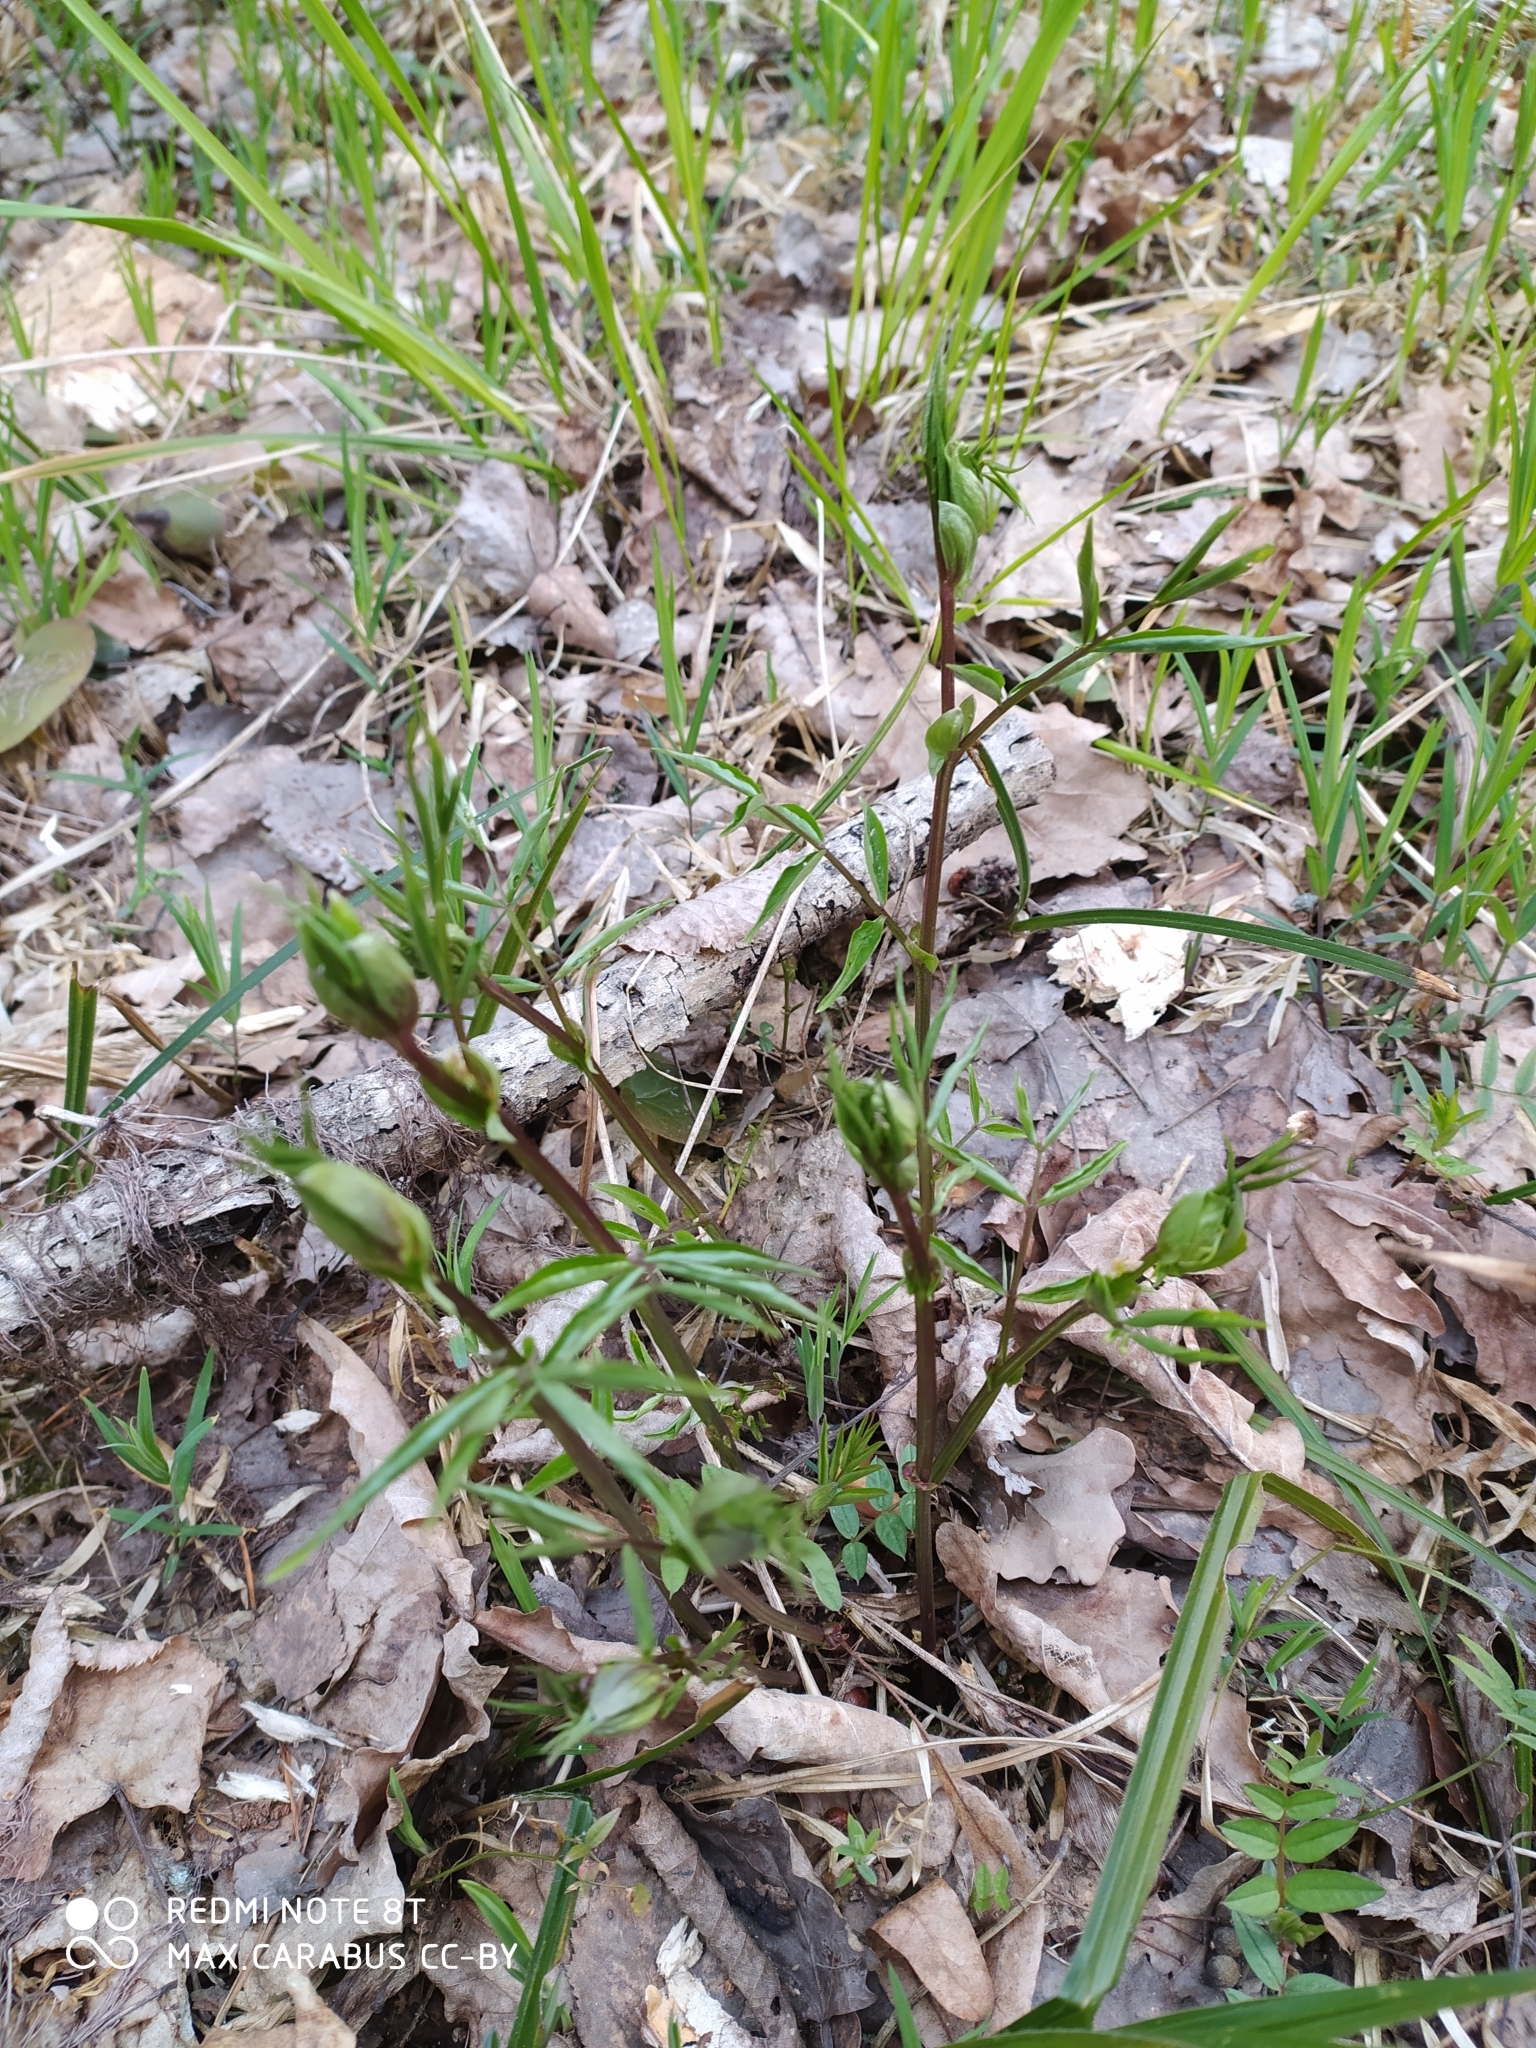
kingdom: Plantae
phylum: Tracheophyta
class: Magnoliopsida
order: Fabales
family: Fabaceae
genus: Lathyrus
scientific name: Lathyrus vernus
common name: Spring pea
